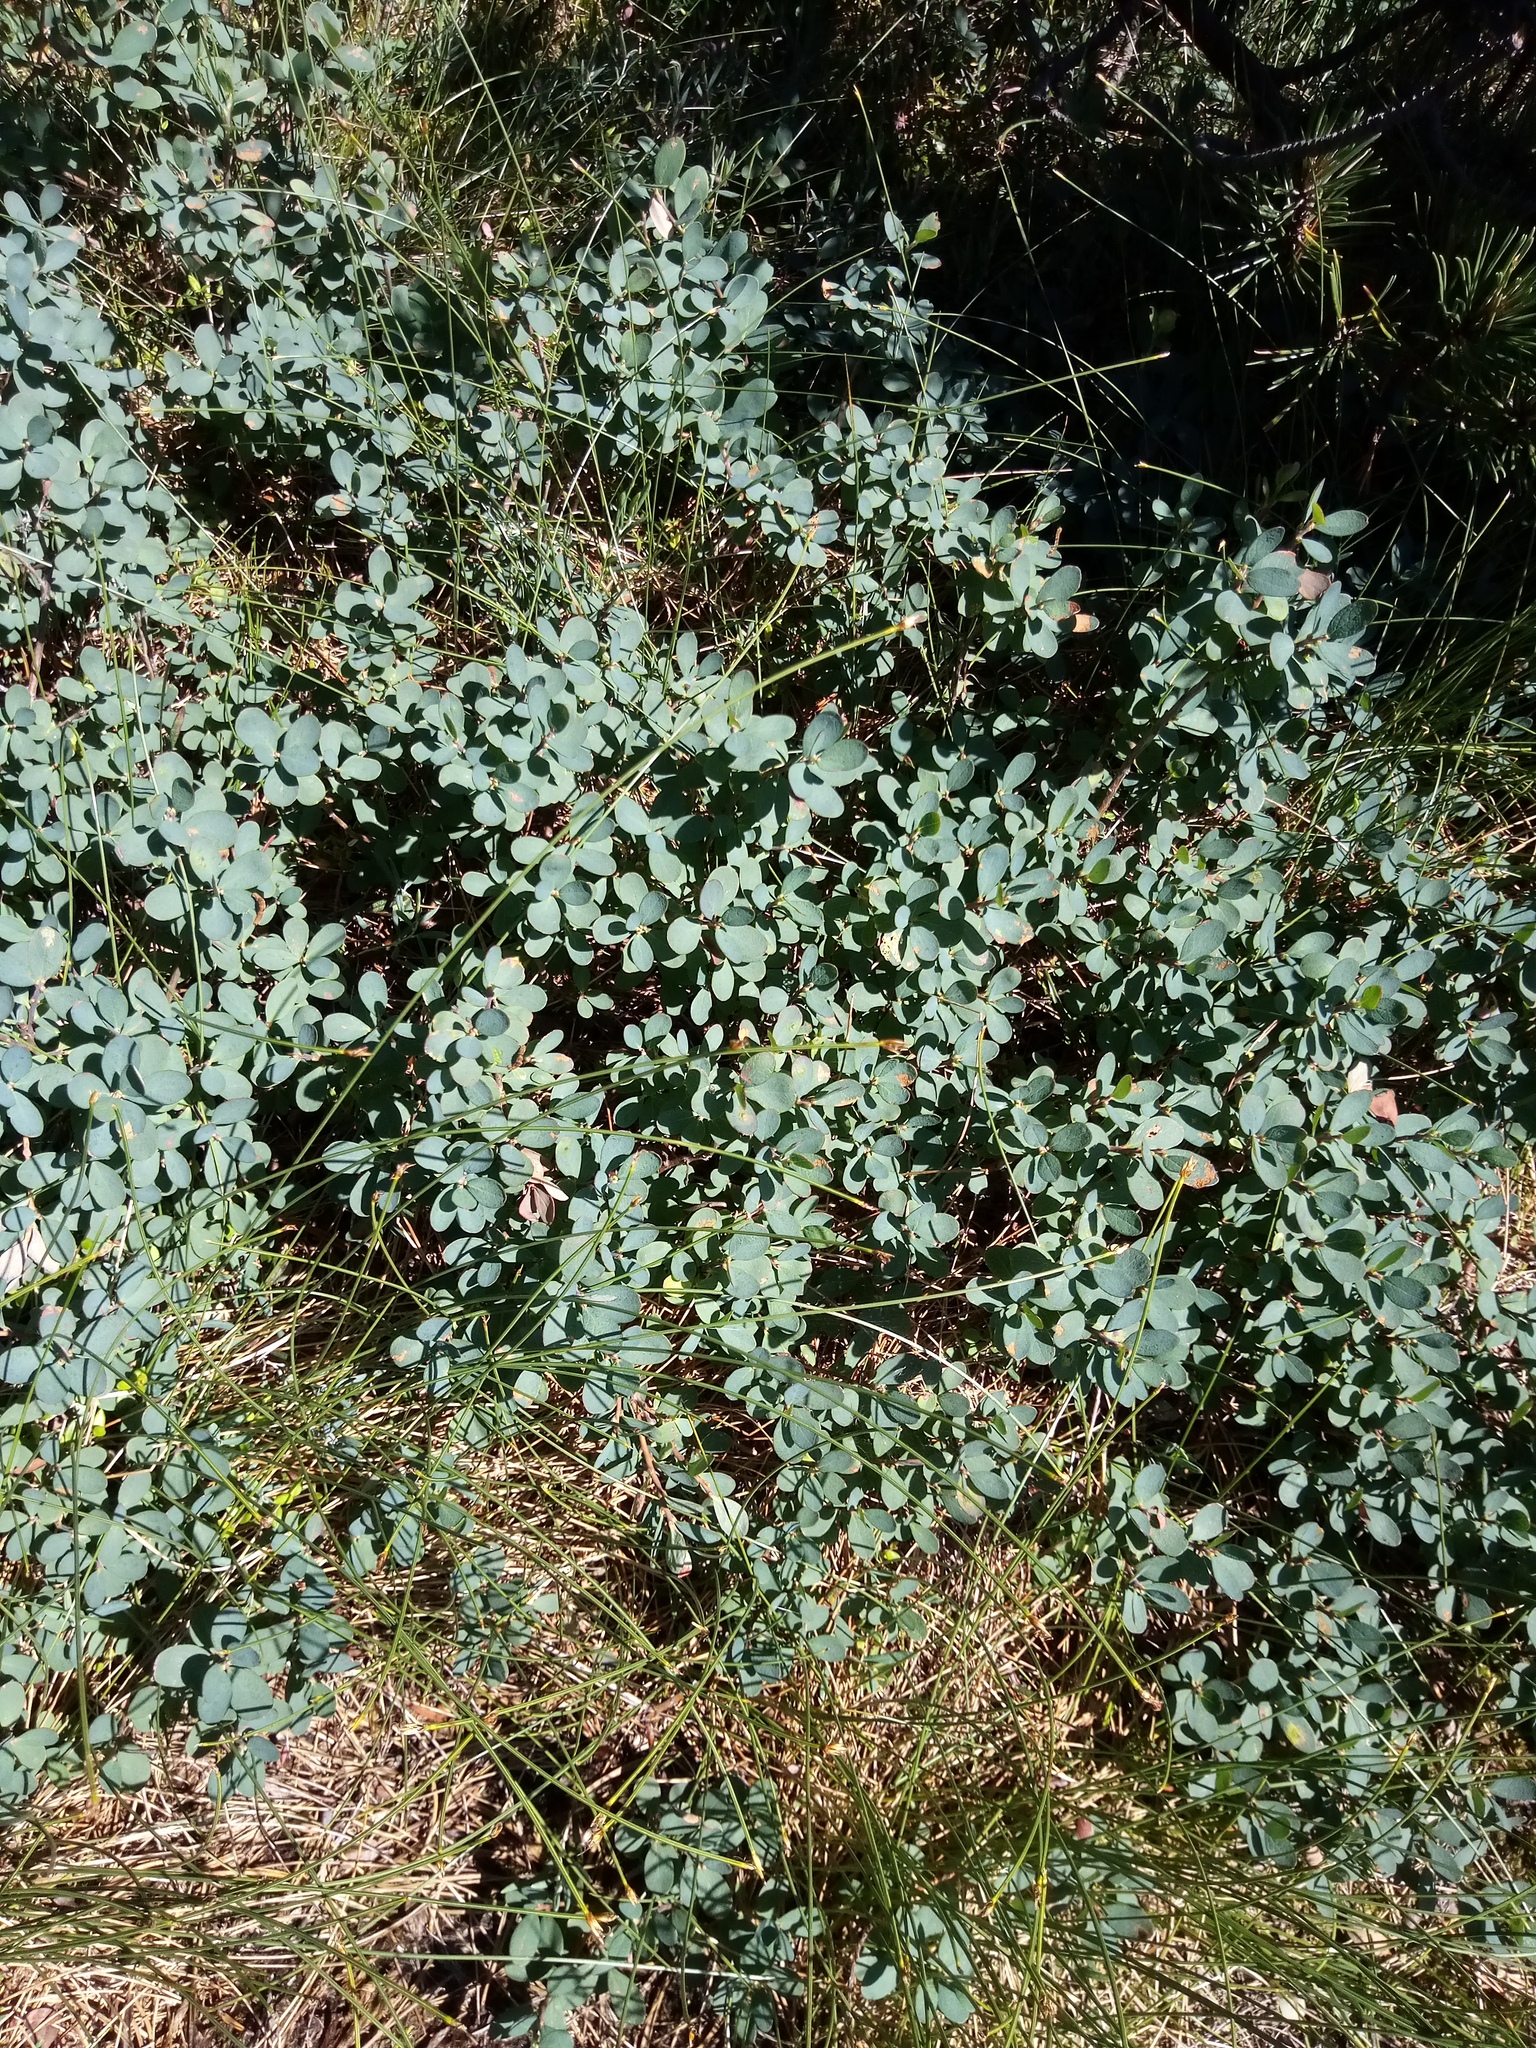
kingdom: Plantae
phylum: Tracheophyta
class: Magnoliopsida
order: Ericales
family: Ericaceae
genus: Vaccinium
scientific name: Vaccinium uliginosum
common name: Bog bilberry
